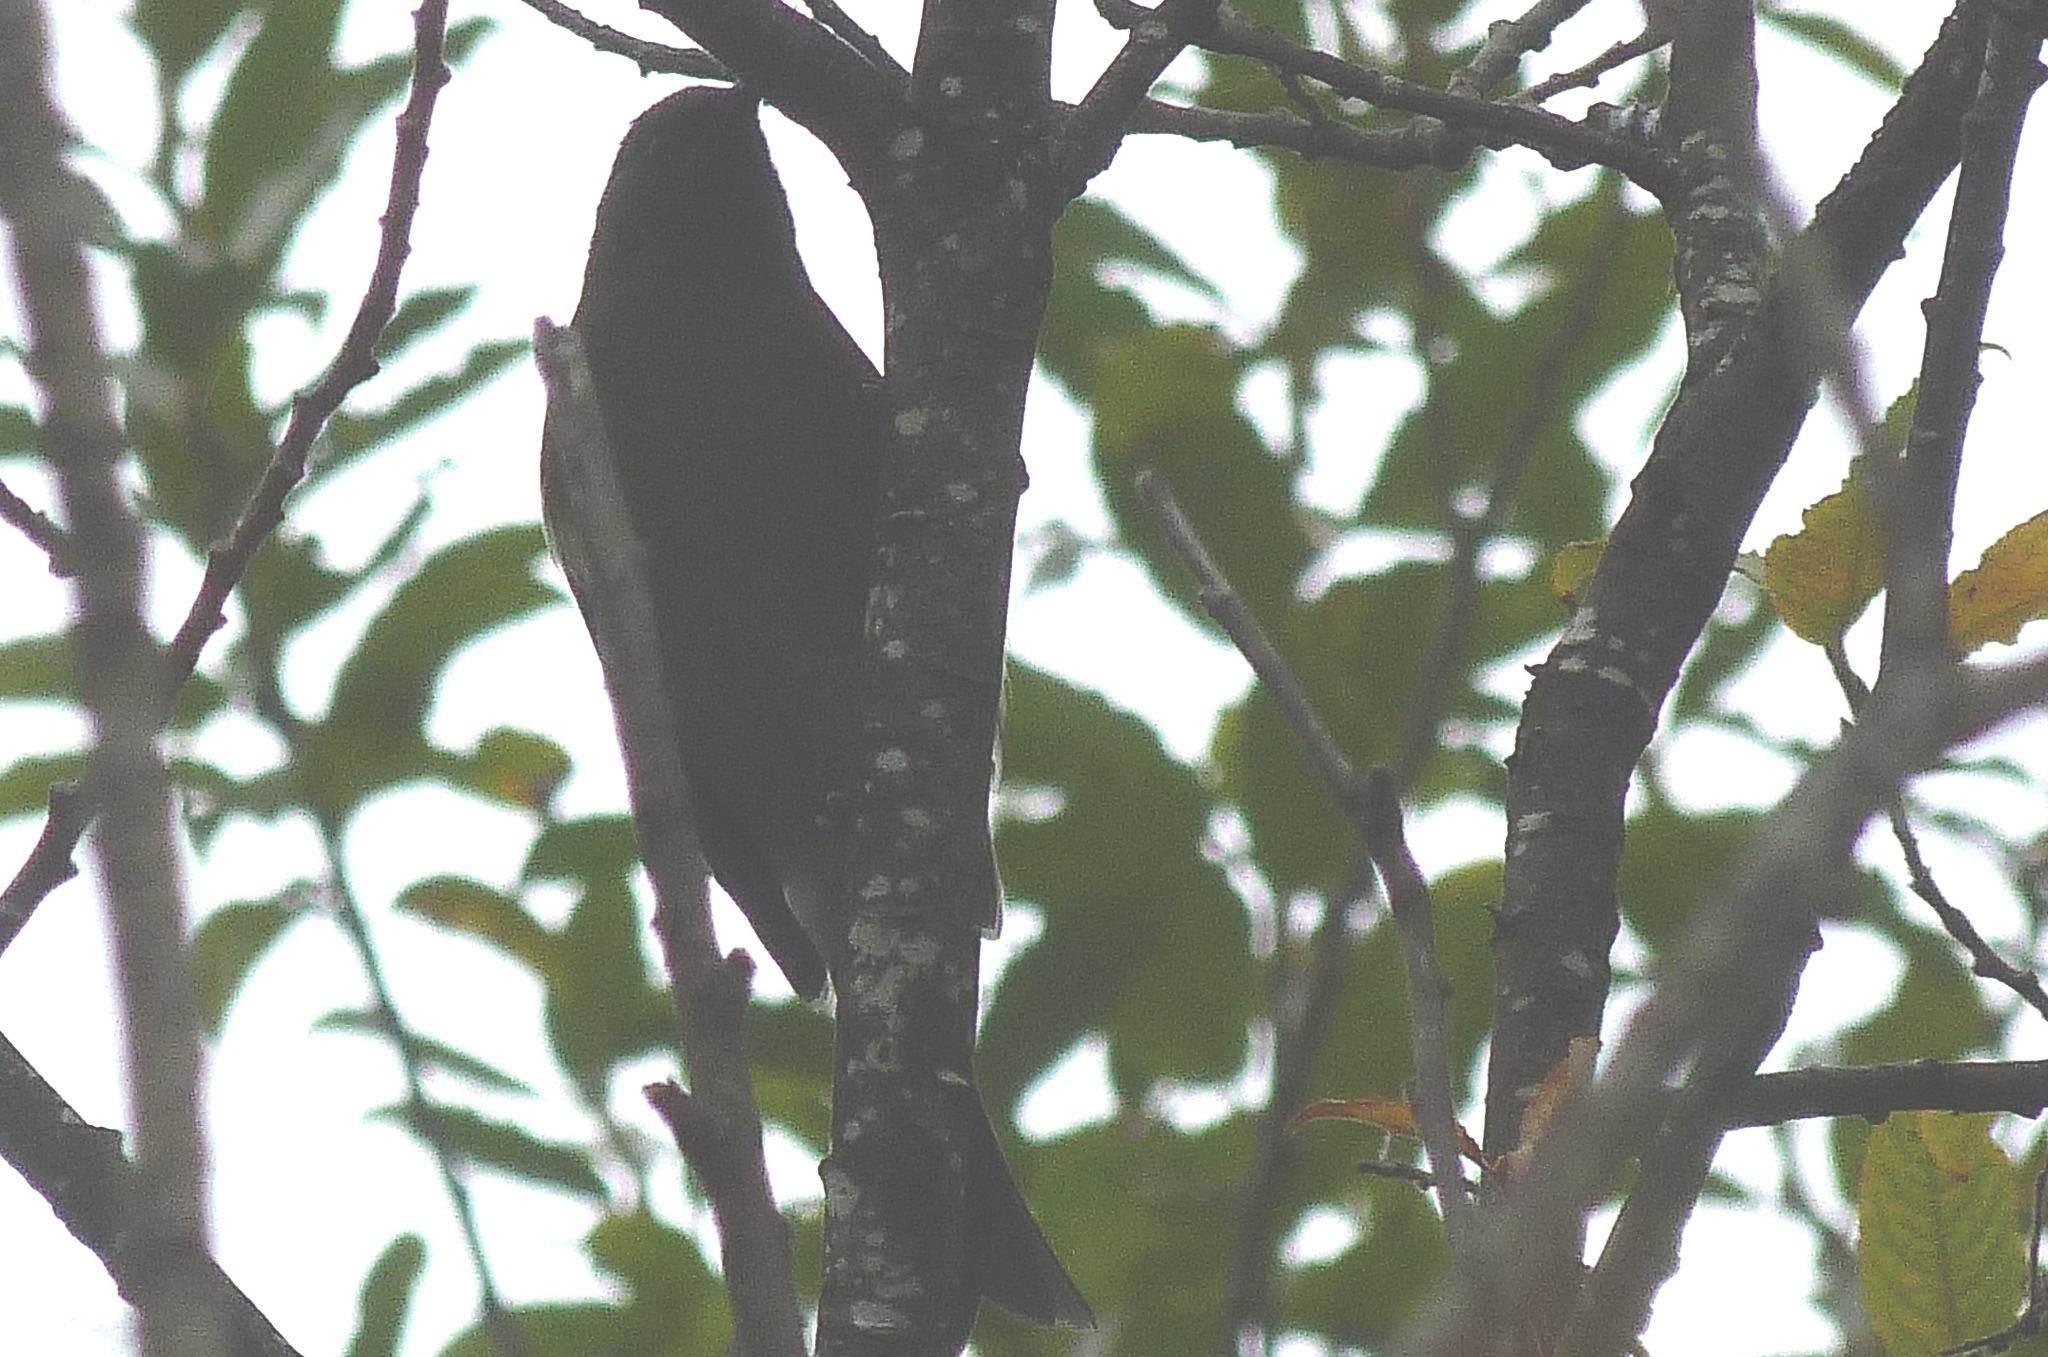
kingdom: Animalia
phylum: Chordata
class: Aves
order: Passeriformes
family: Meliphagidae
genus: Anthornis
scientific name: Anthornis melanura
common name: New zealand bellbird
